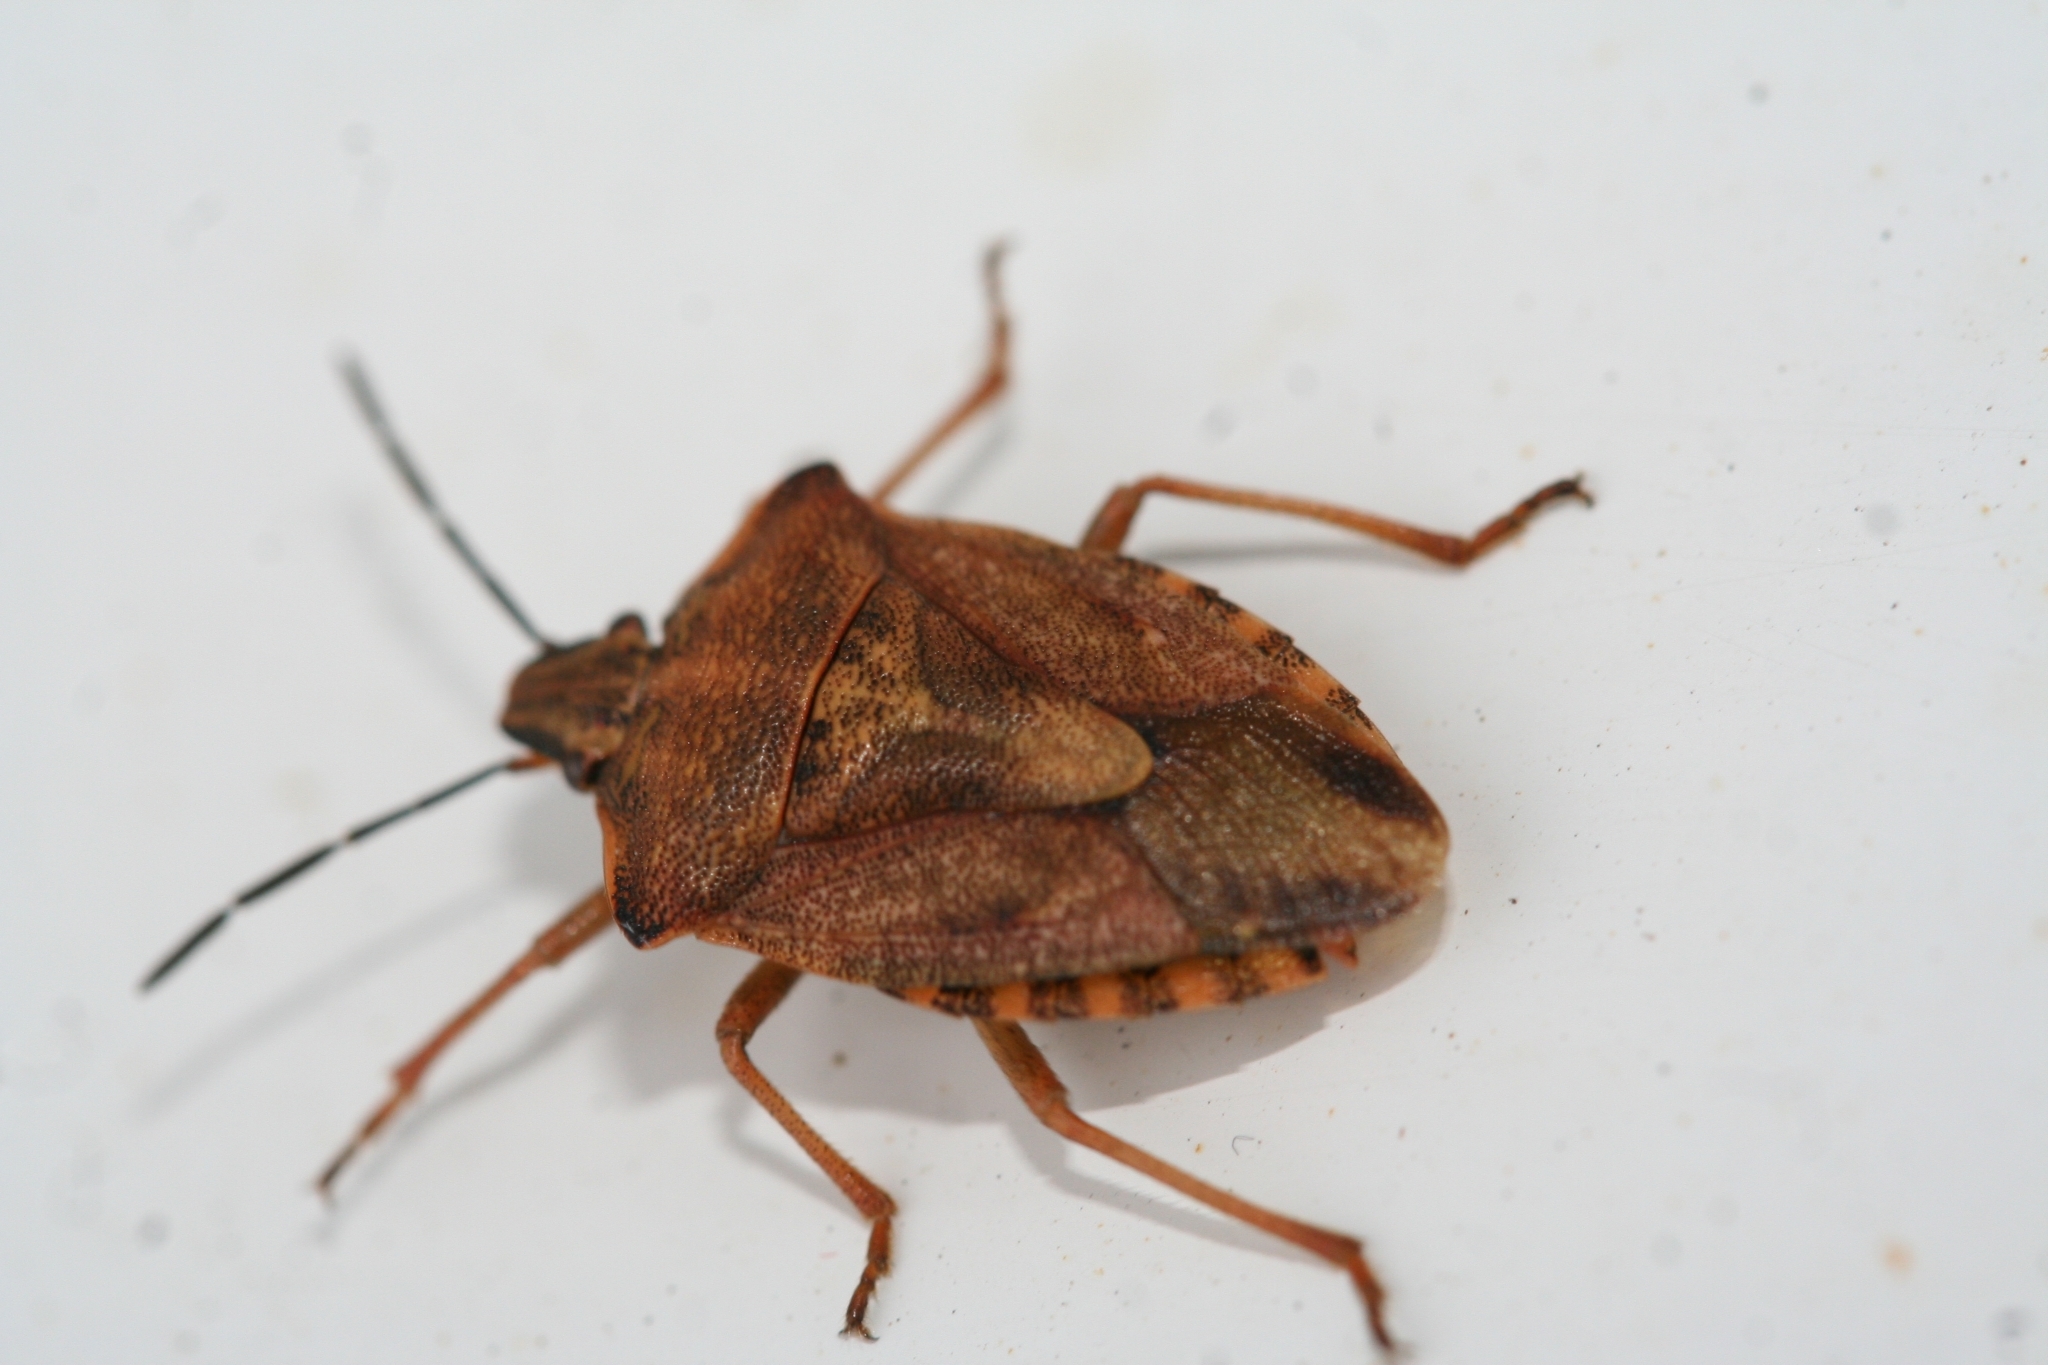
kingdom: Animalia
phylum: Arthropoda
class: Insecta
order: Hemiptera
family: Pentatomidae
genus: Carpocoris
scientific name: Carpocoris purpureipennis
